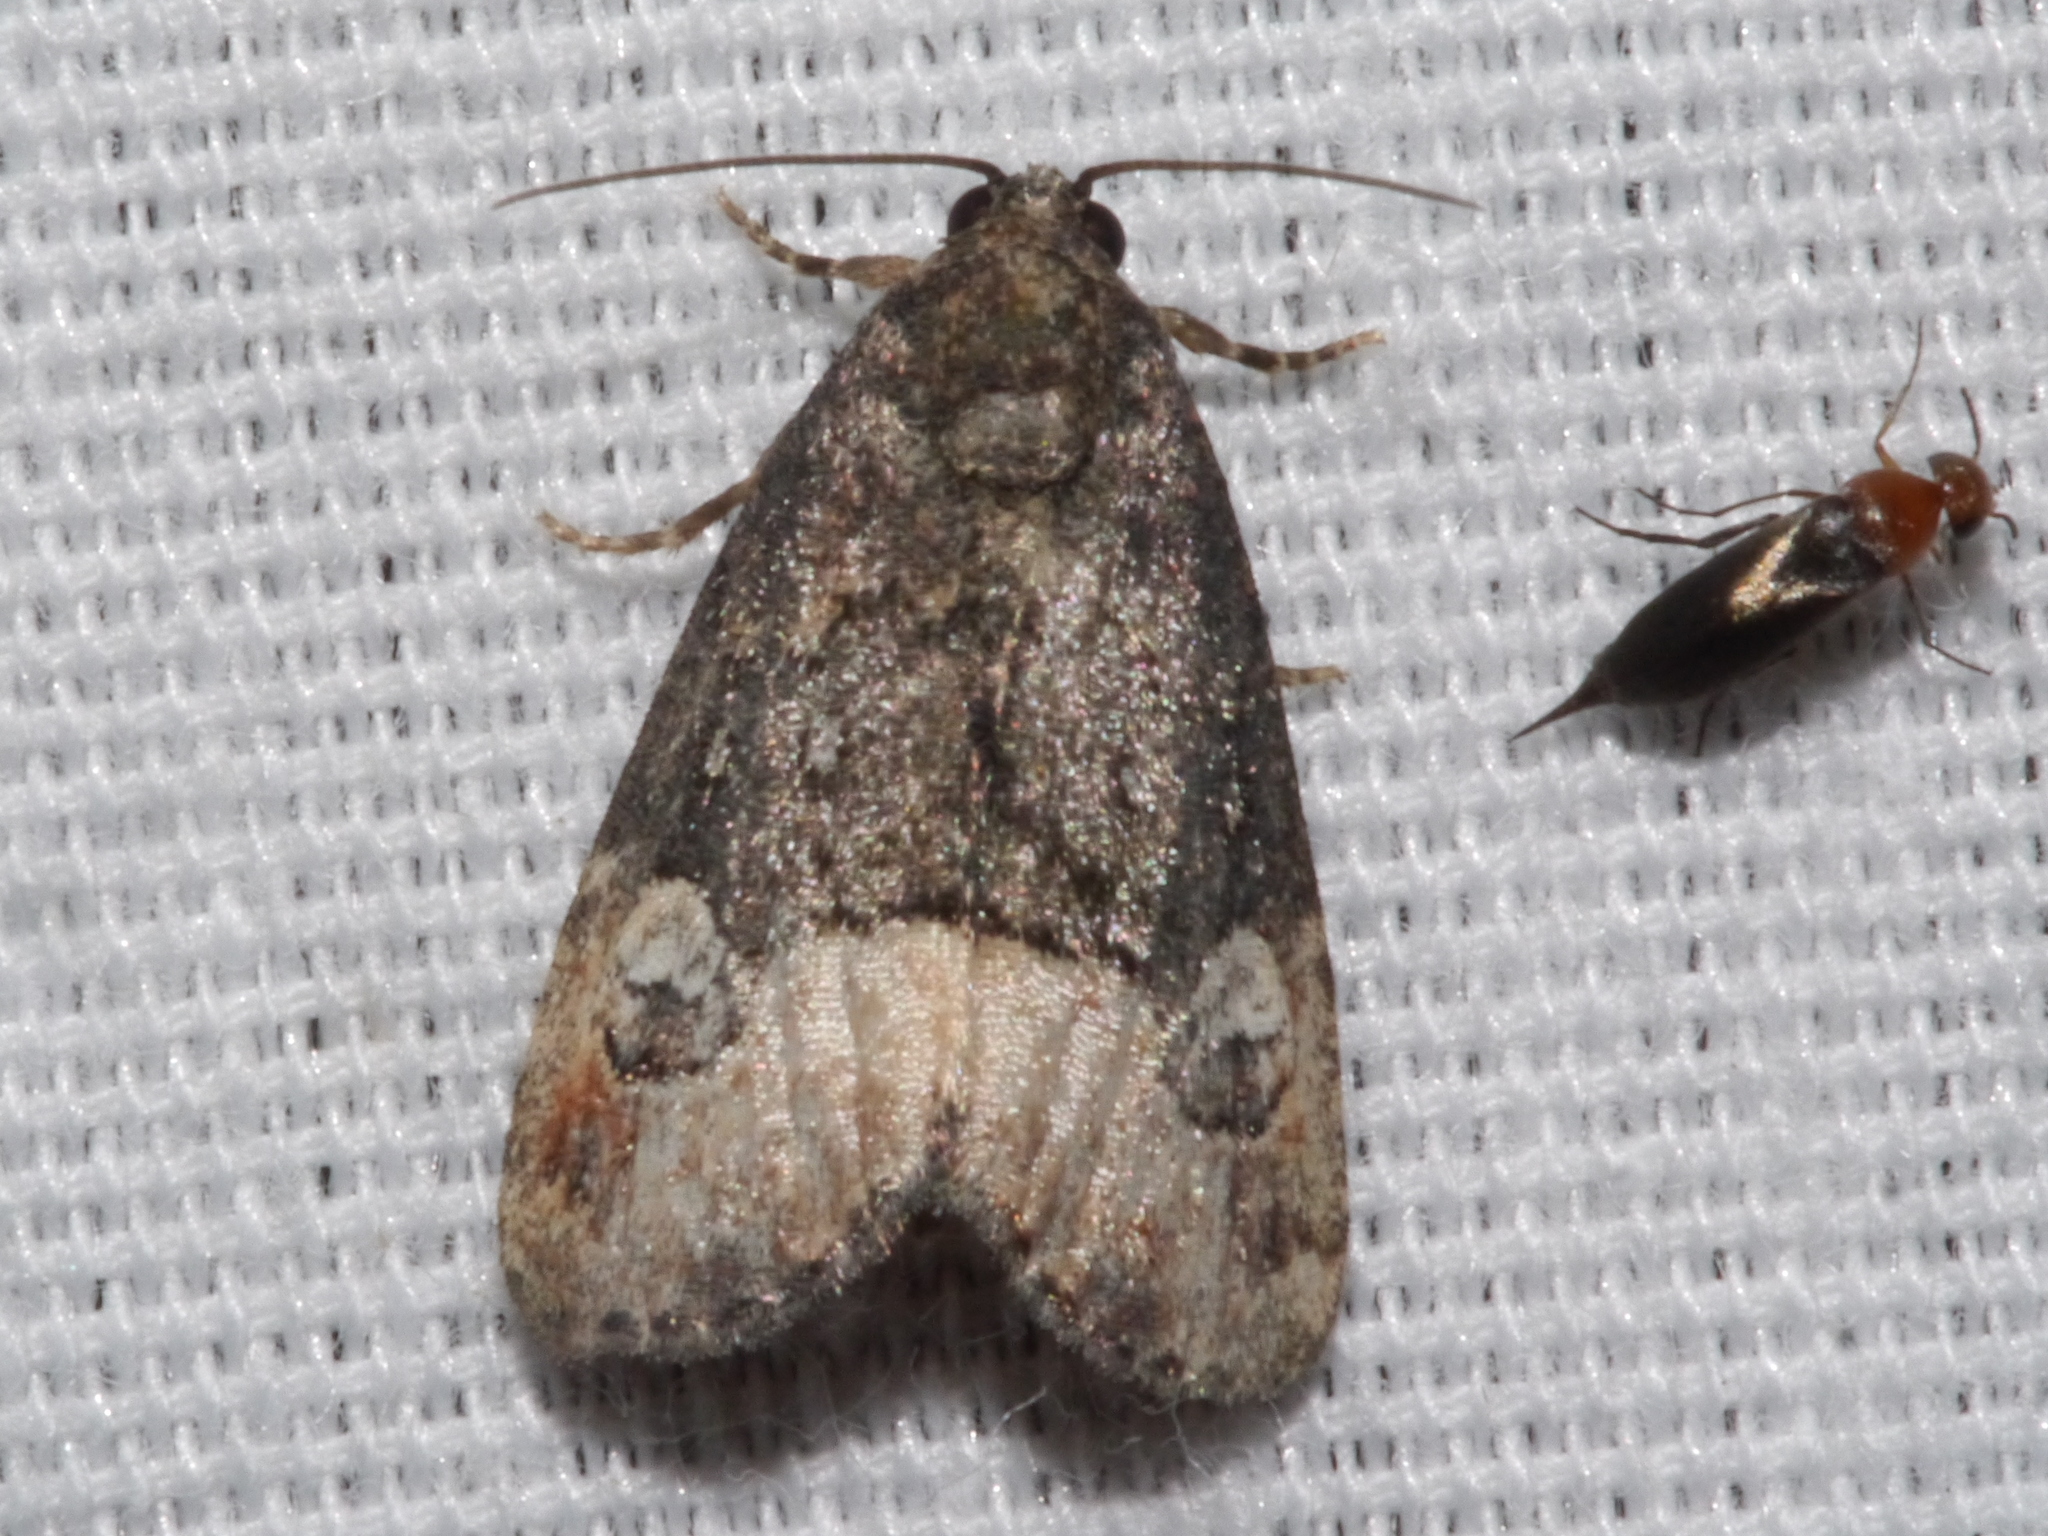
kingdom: Animalia
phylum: Arthropoda
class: Insecta
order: Lepidoptera
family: Noctuidae
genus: Ozarba
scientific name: Ozarba propera
